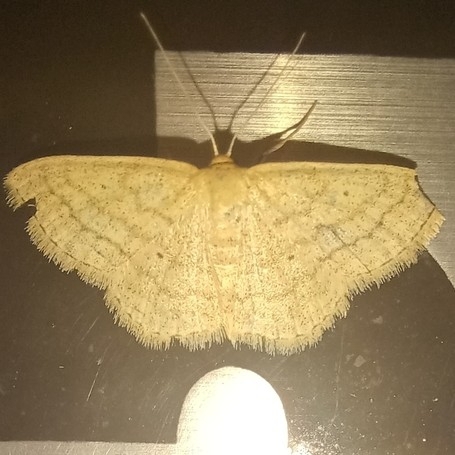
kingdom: Animalia
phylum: Arthropoda
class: Insecta
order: Lepidoptera
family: Geometridae
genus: Scopula
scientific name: Scopula inductata
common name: Soft-lined wave
